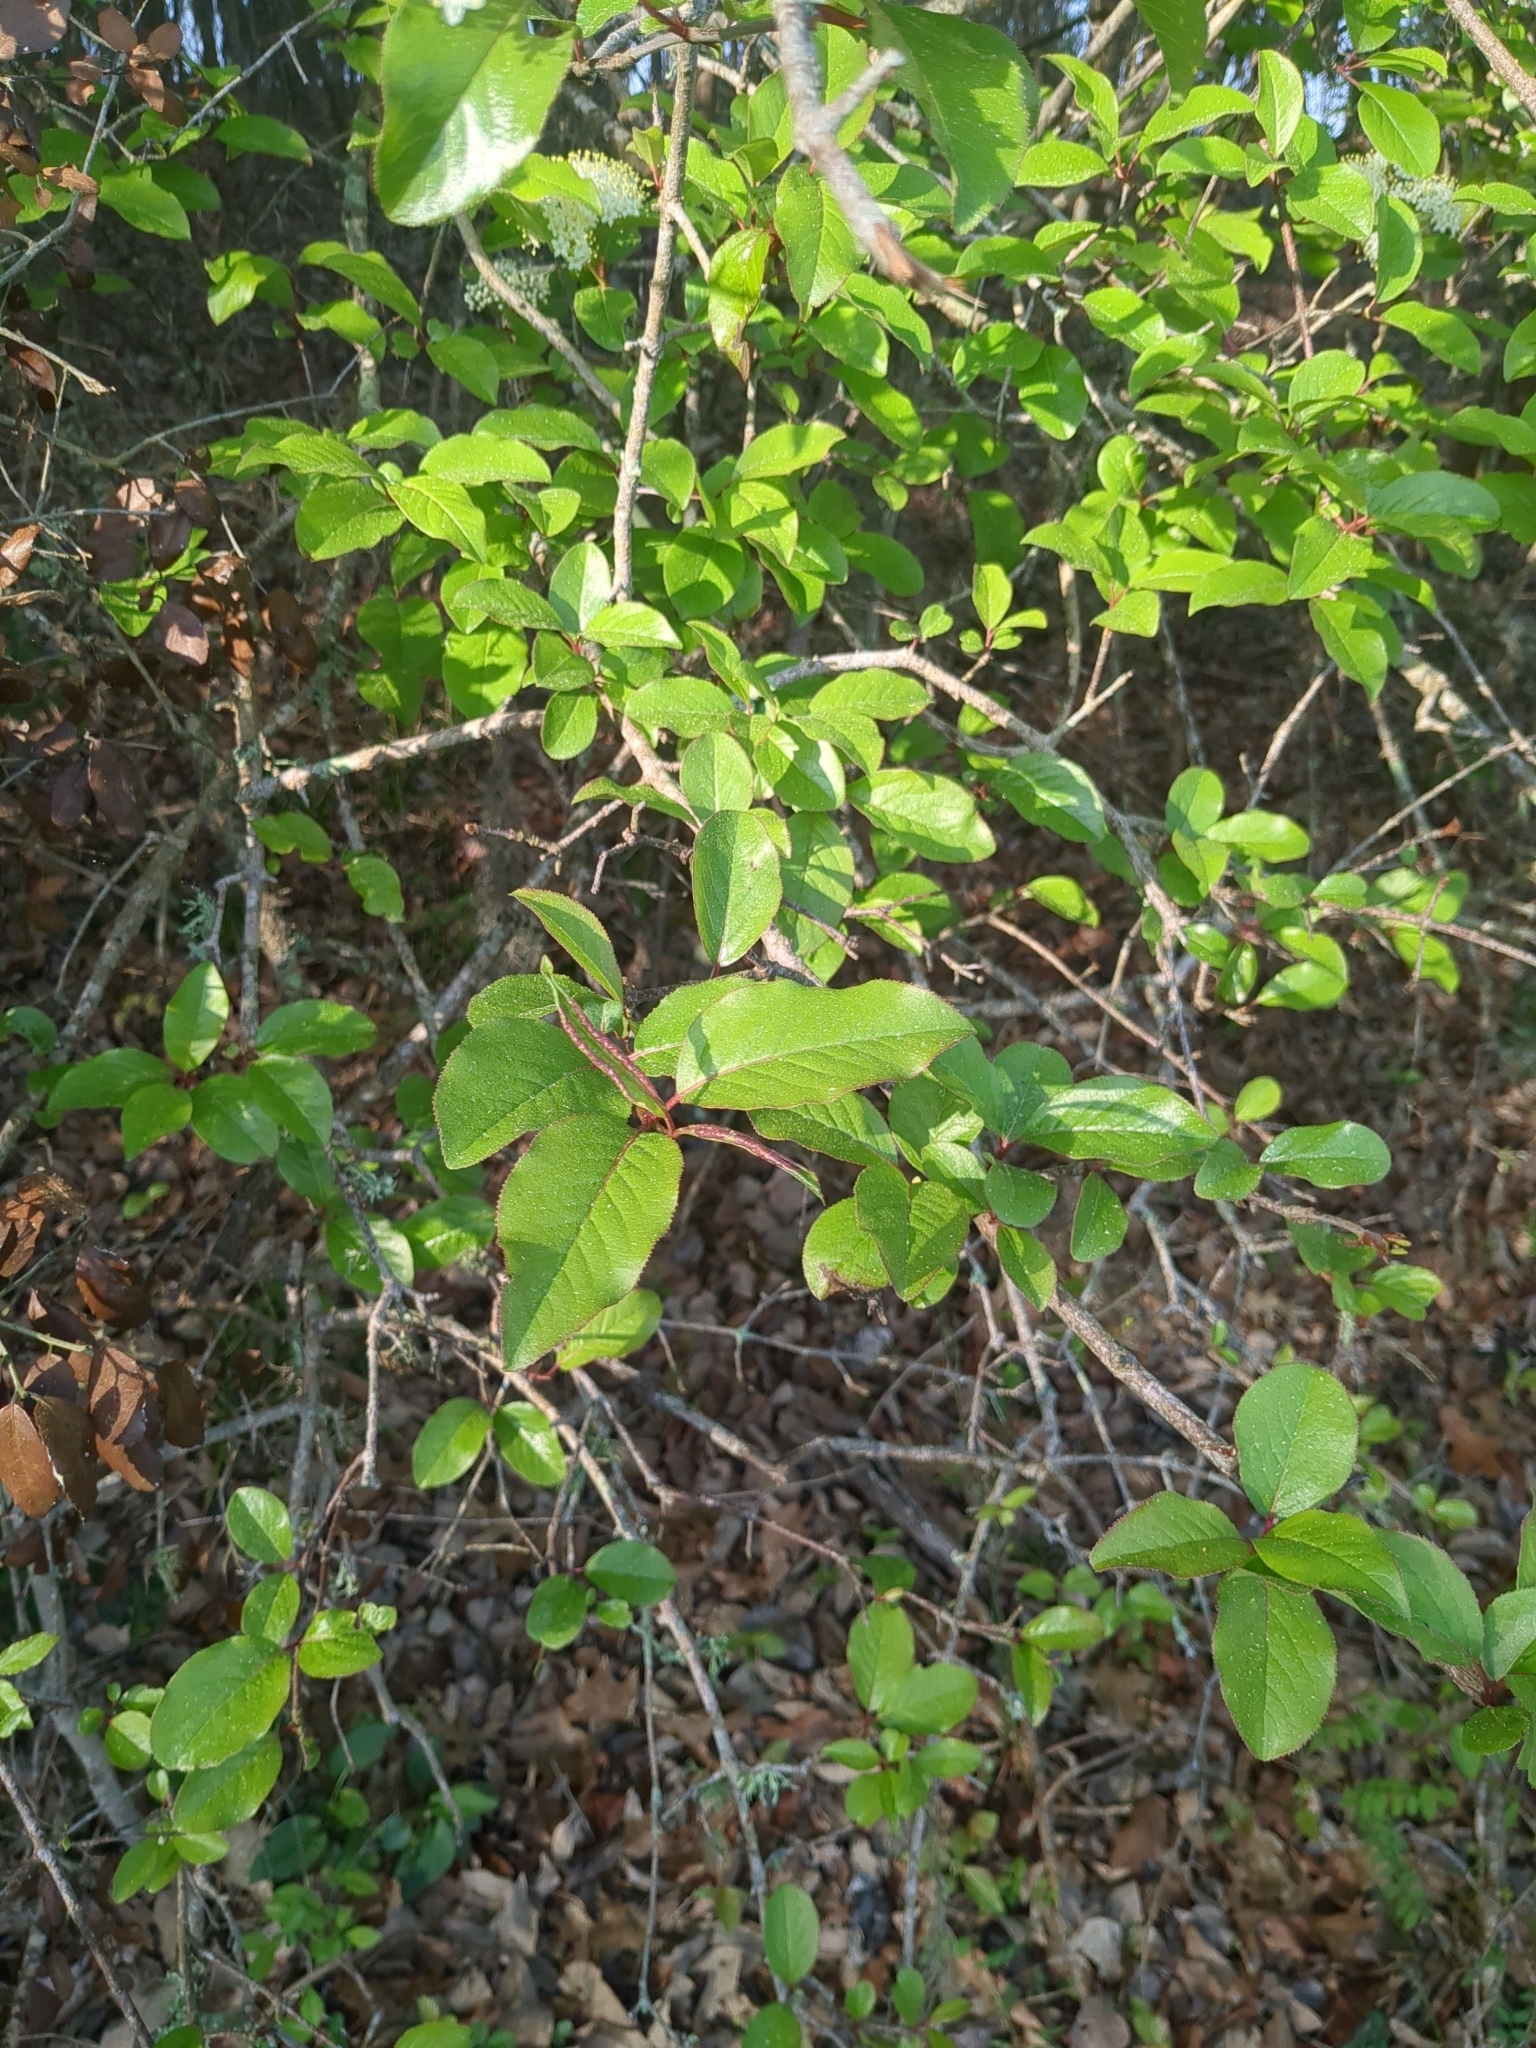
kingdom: Plantae
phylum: Tracheophyta
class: Magnoliopsida
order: Dipsacales
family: Viburnaceae
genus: Viburnum
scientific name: Viburnum rufidulum
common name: Blue haw
